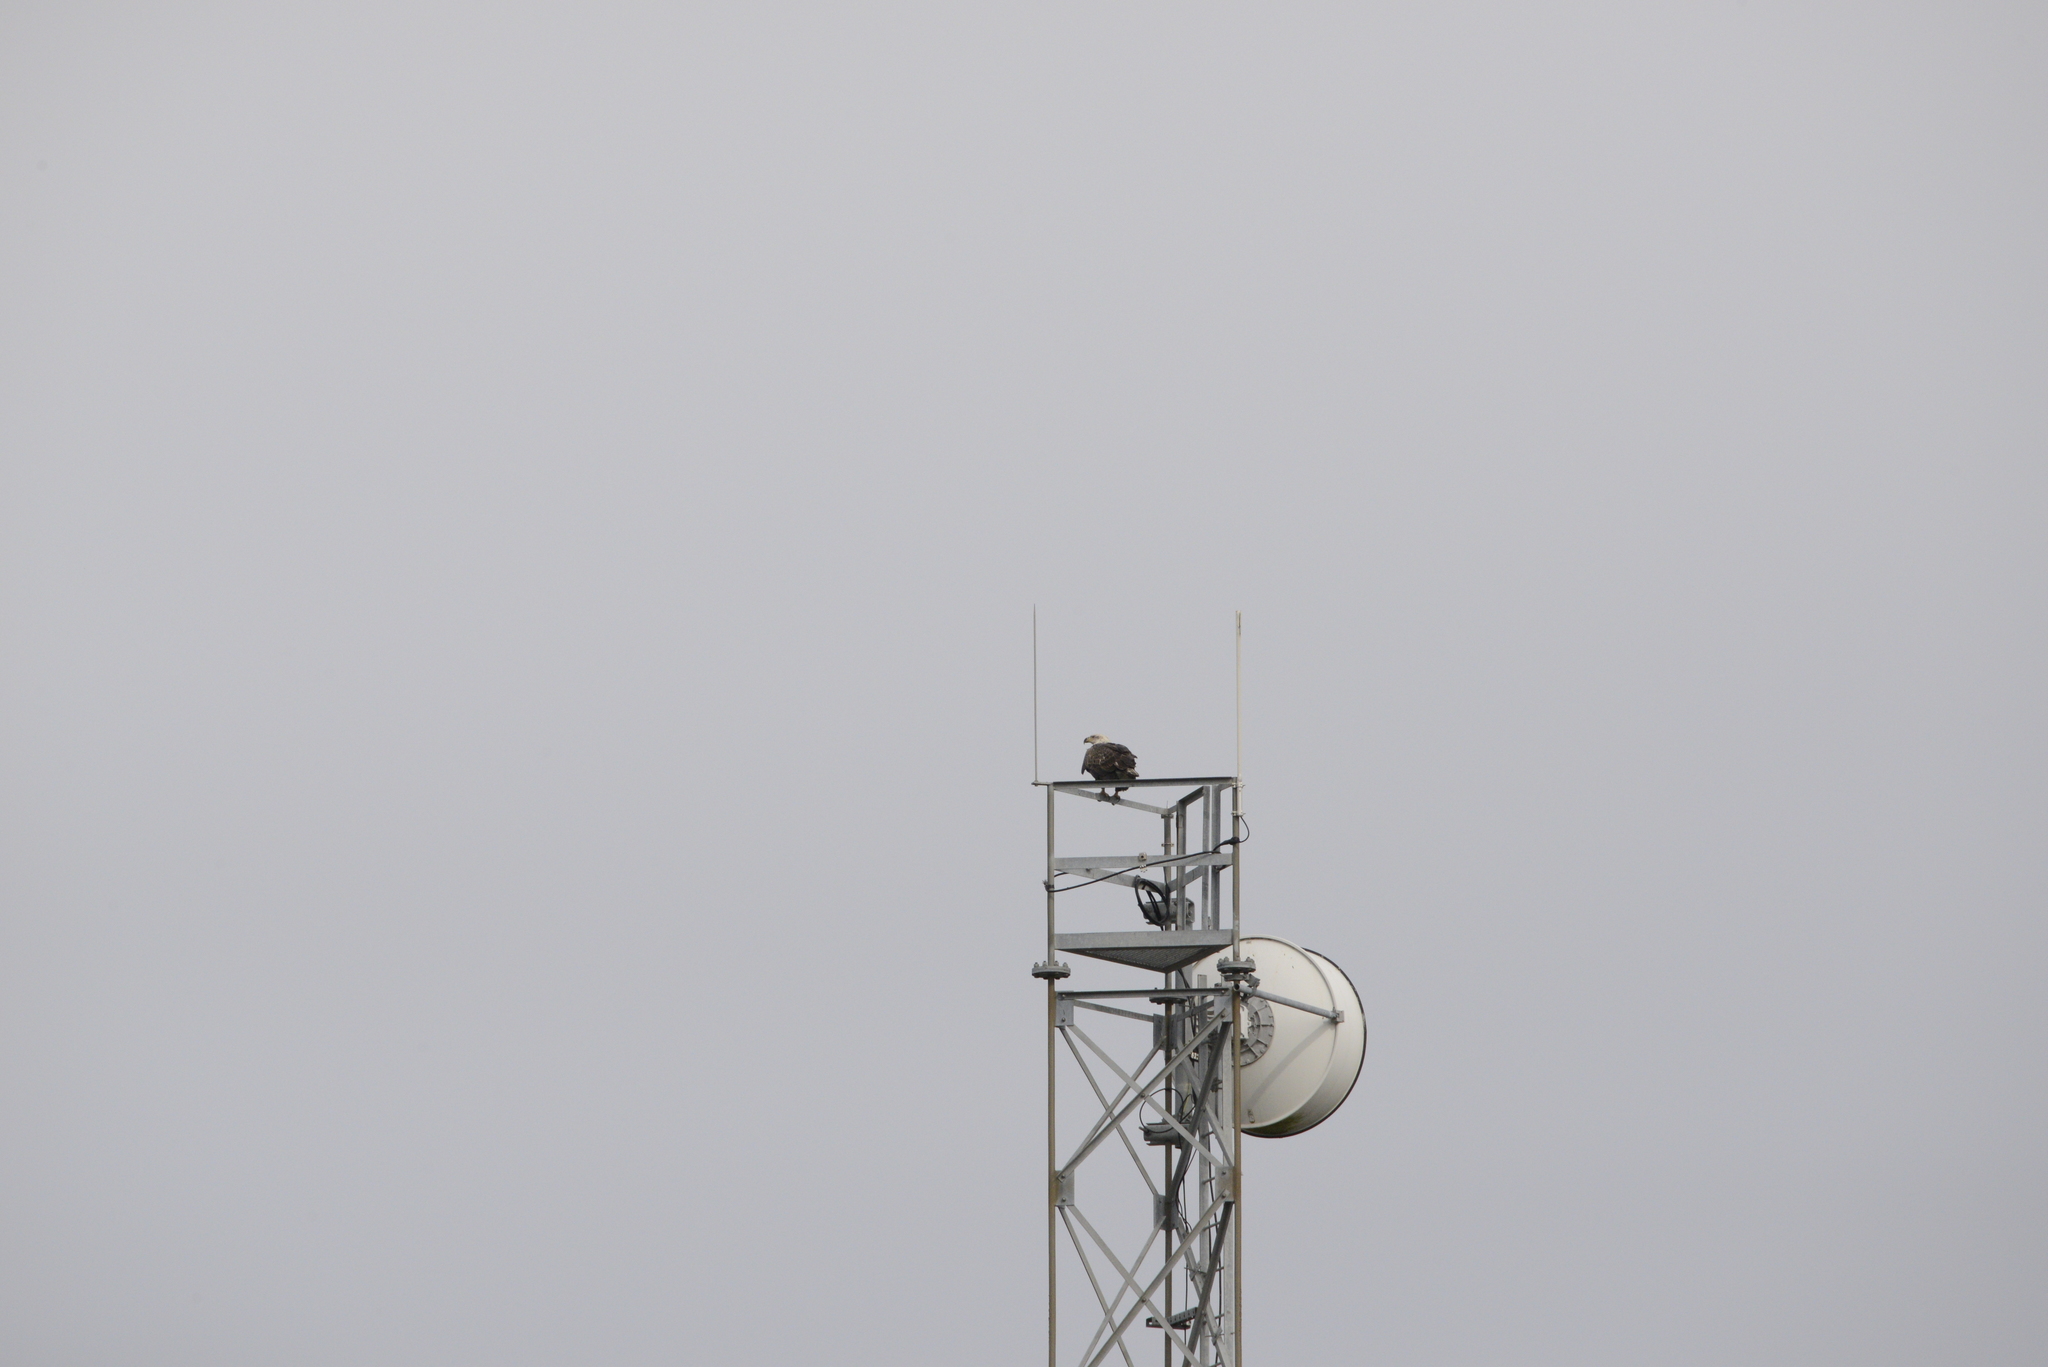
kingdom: Animalia
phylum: Chordata
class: Aves
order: Accipitriformes
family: Accipitridae
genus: Haliaeetus
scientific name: Haliaeetus leucocephalus
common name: Bald eagle
